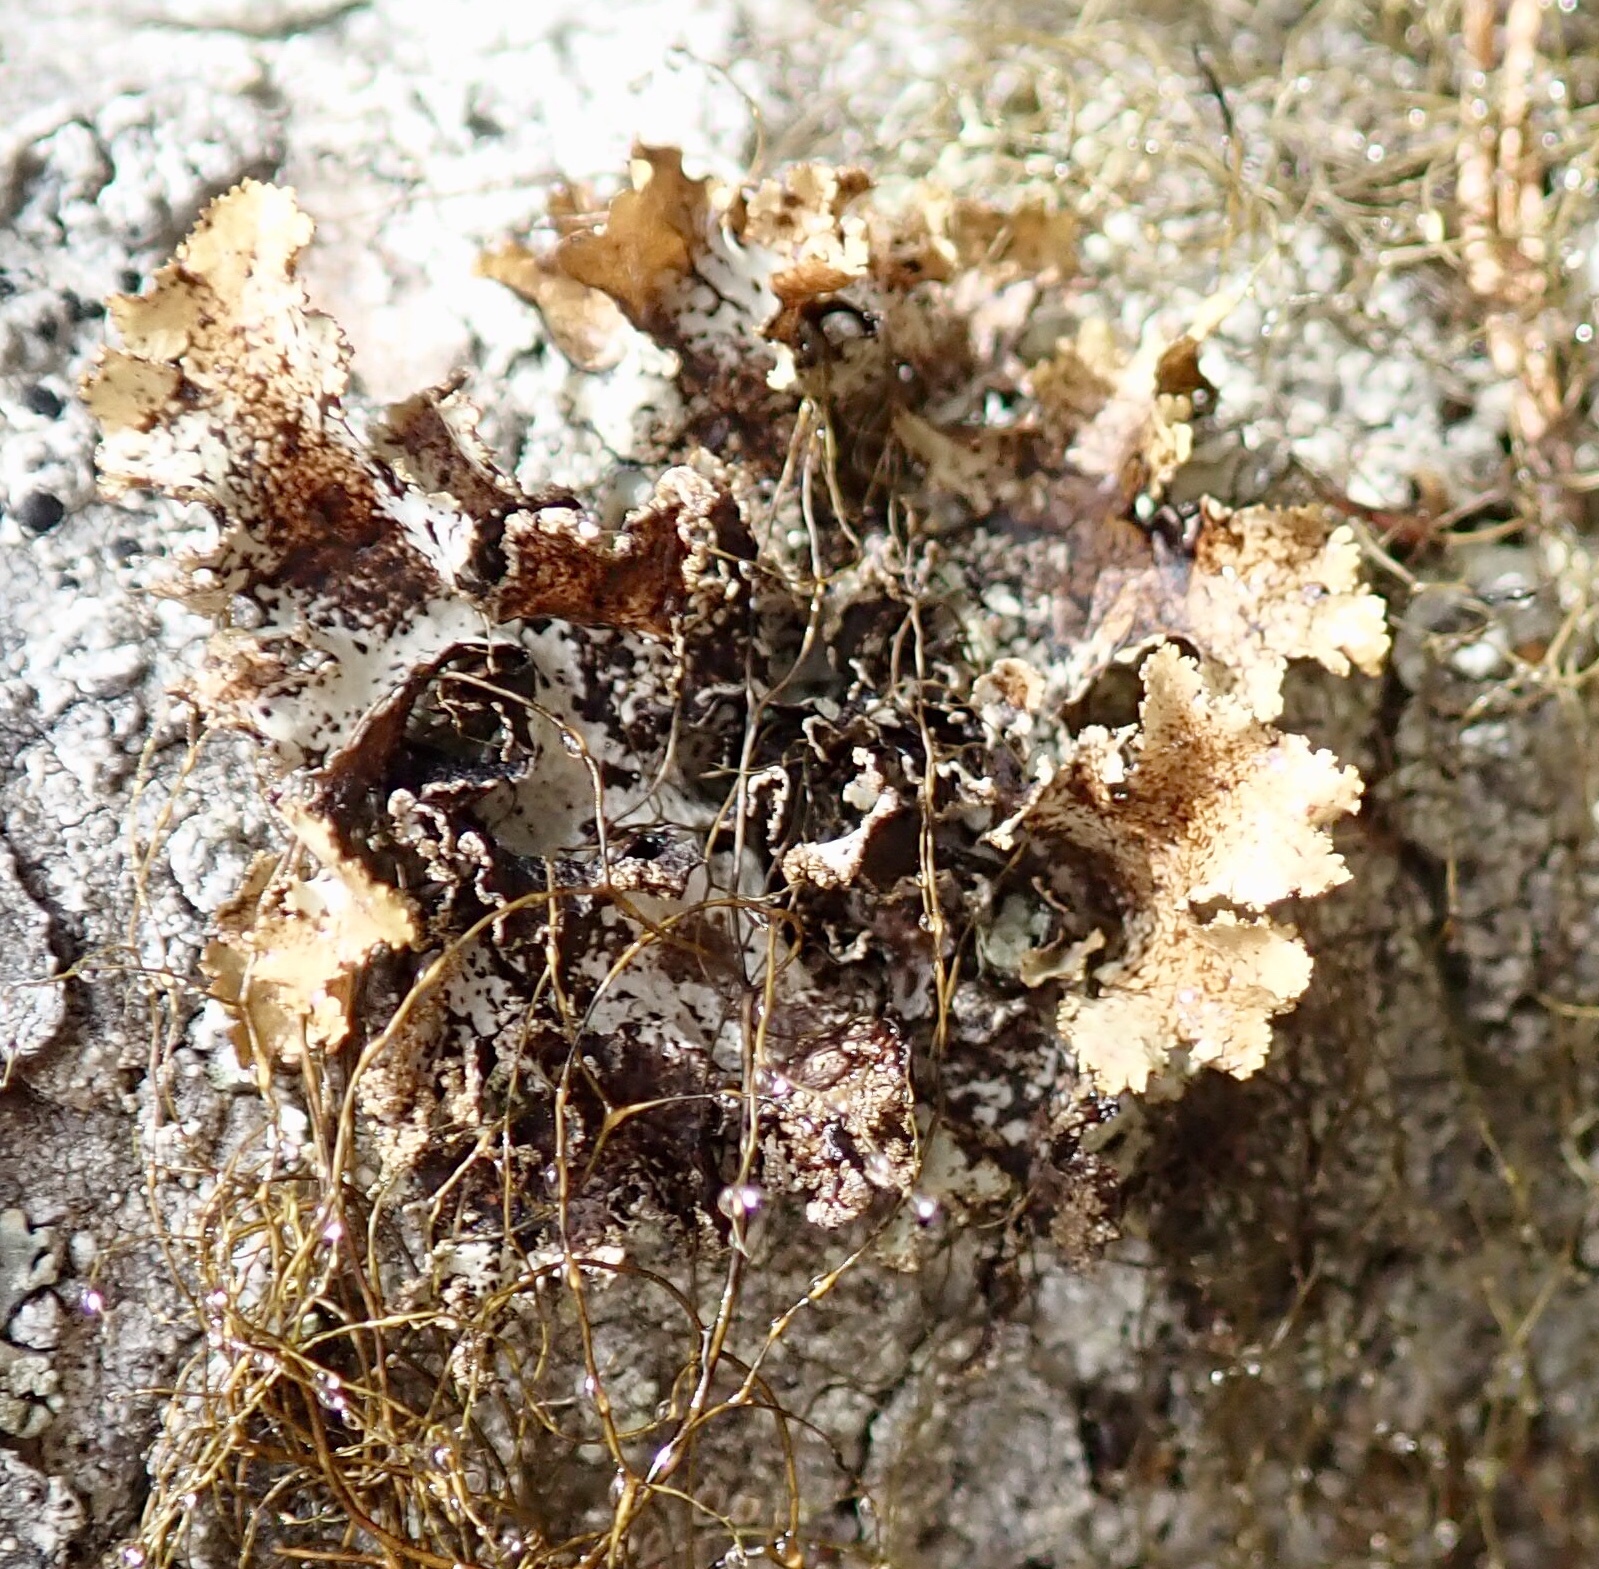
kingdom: Fungi
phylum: Ascomycota
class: Lecanoromycetes
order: Lecanorales
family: Parmeliaceae
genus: Platismatia
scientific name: Platismatia glauca
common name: Varied rag lichen
